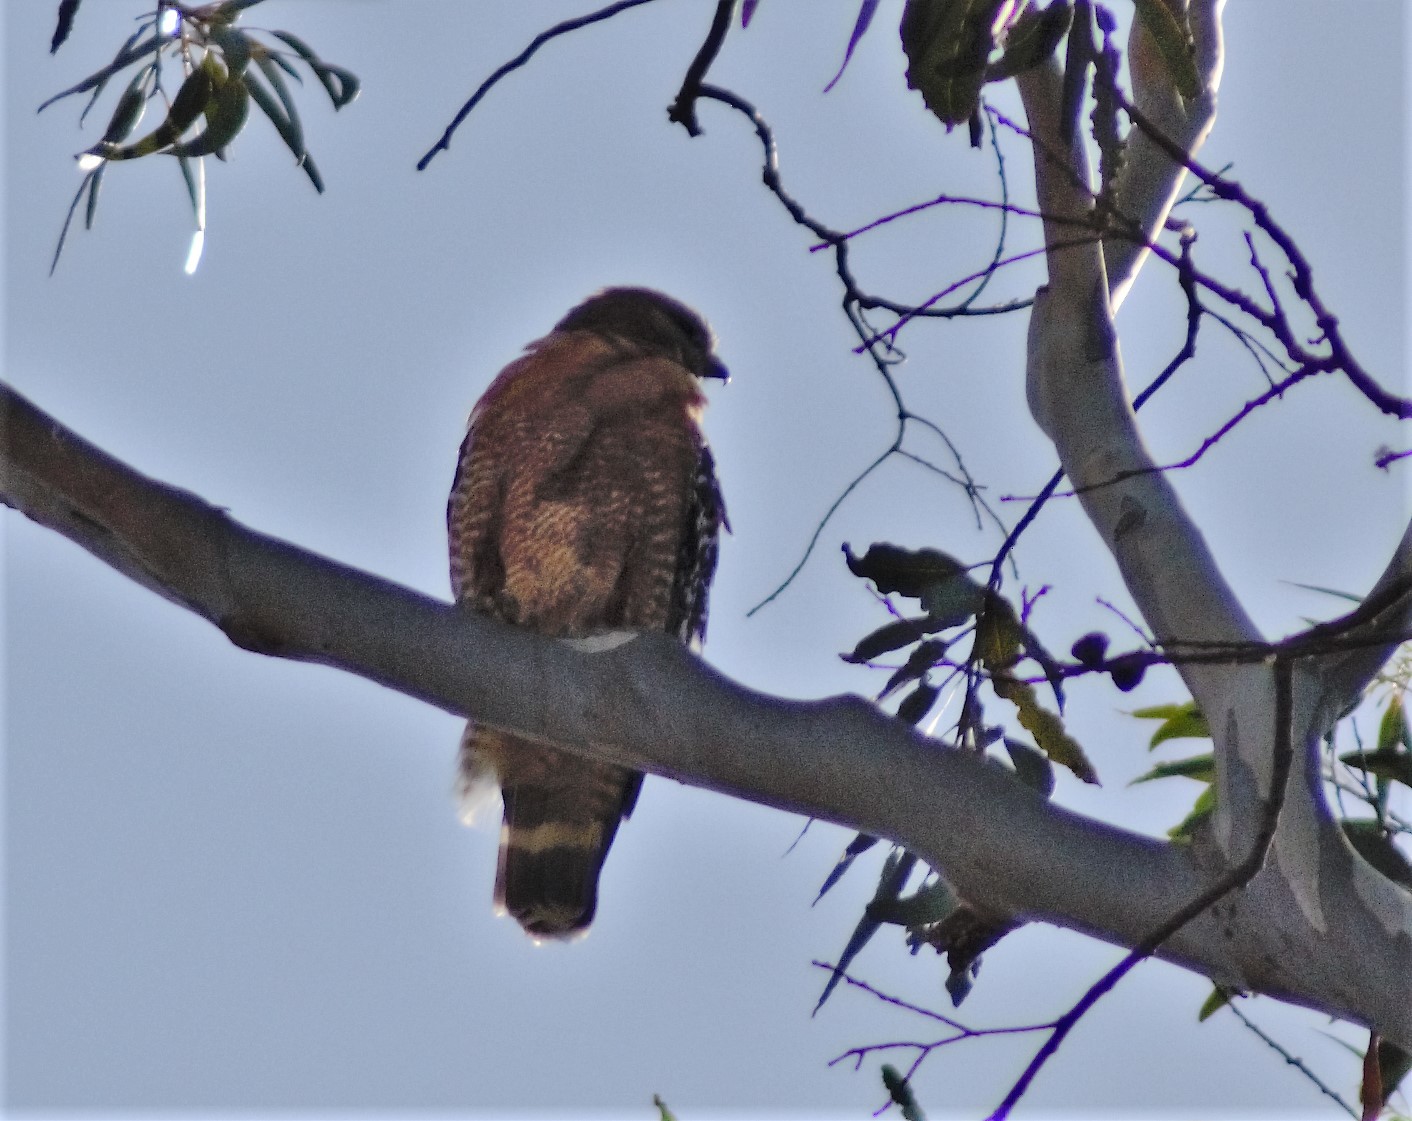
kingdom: Animalia
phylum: Chordata
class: Aves
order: Accipitriformes
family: Accipitridae
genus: Buteo
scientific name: Buteo lineatus
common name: Red-shouldered hawk
